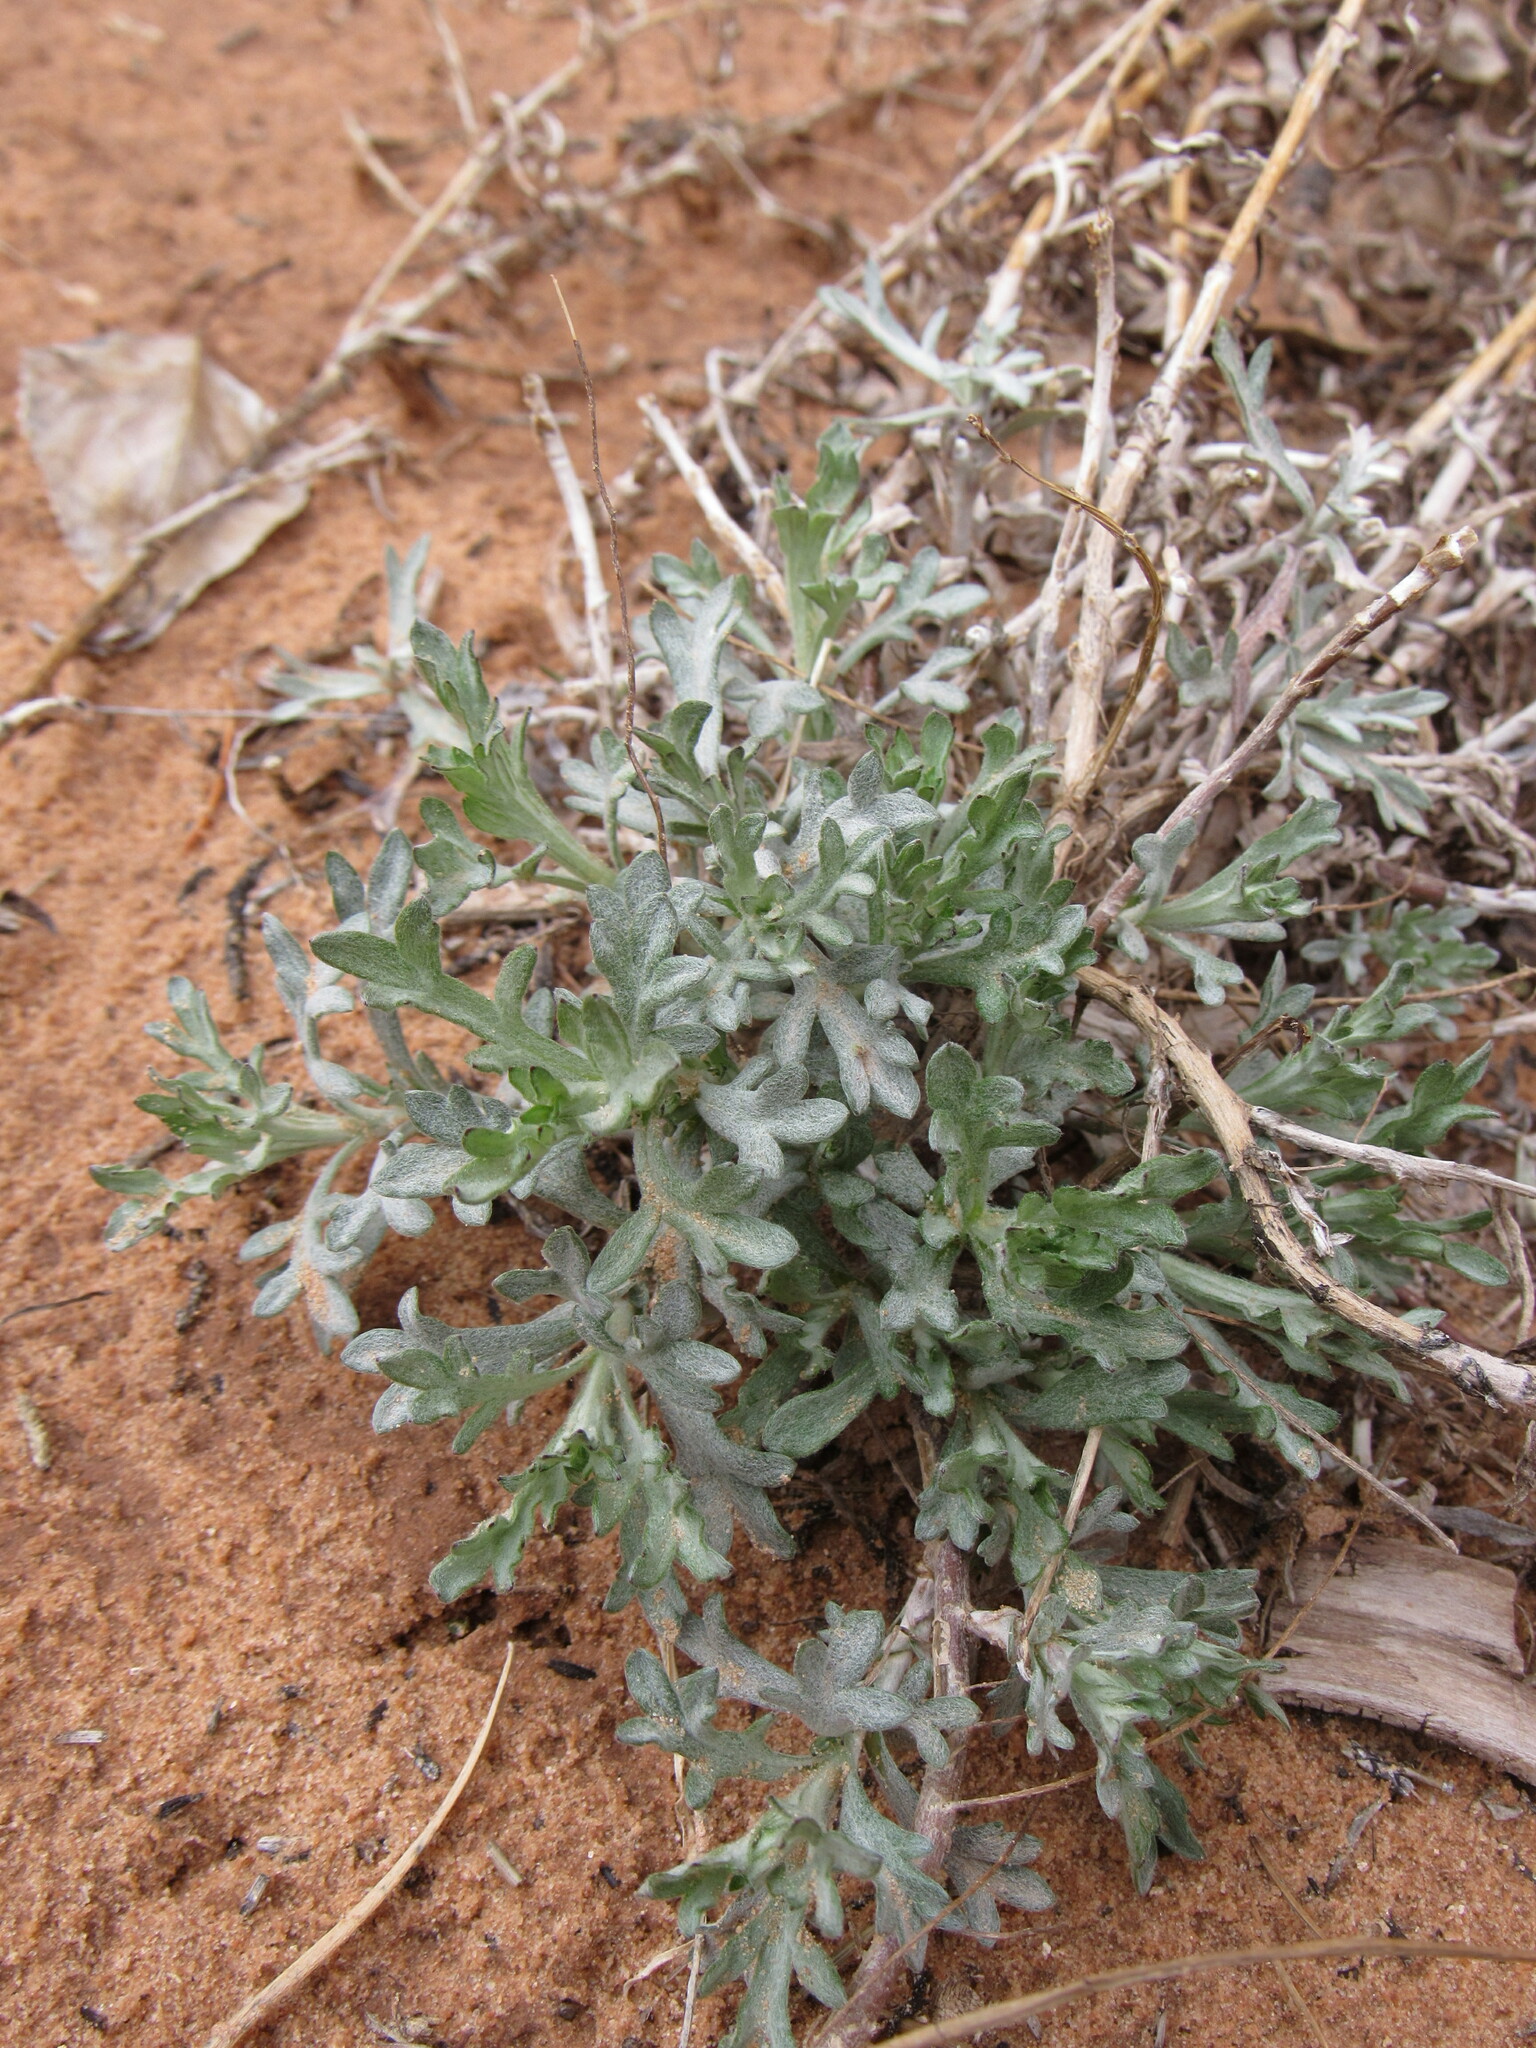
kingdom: Plantae
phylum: Tracheophyta
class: Magnoliopsida
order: Asterales
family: Asteraceae
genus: Artemisia
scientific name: Artemisia ludoviciana
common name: Western mugwort
